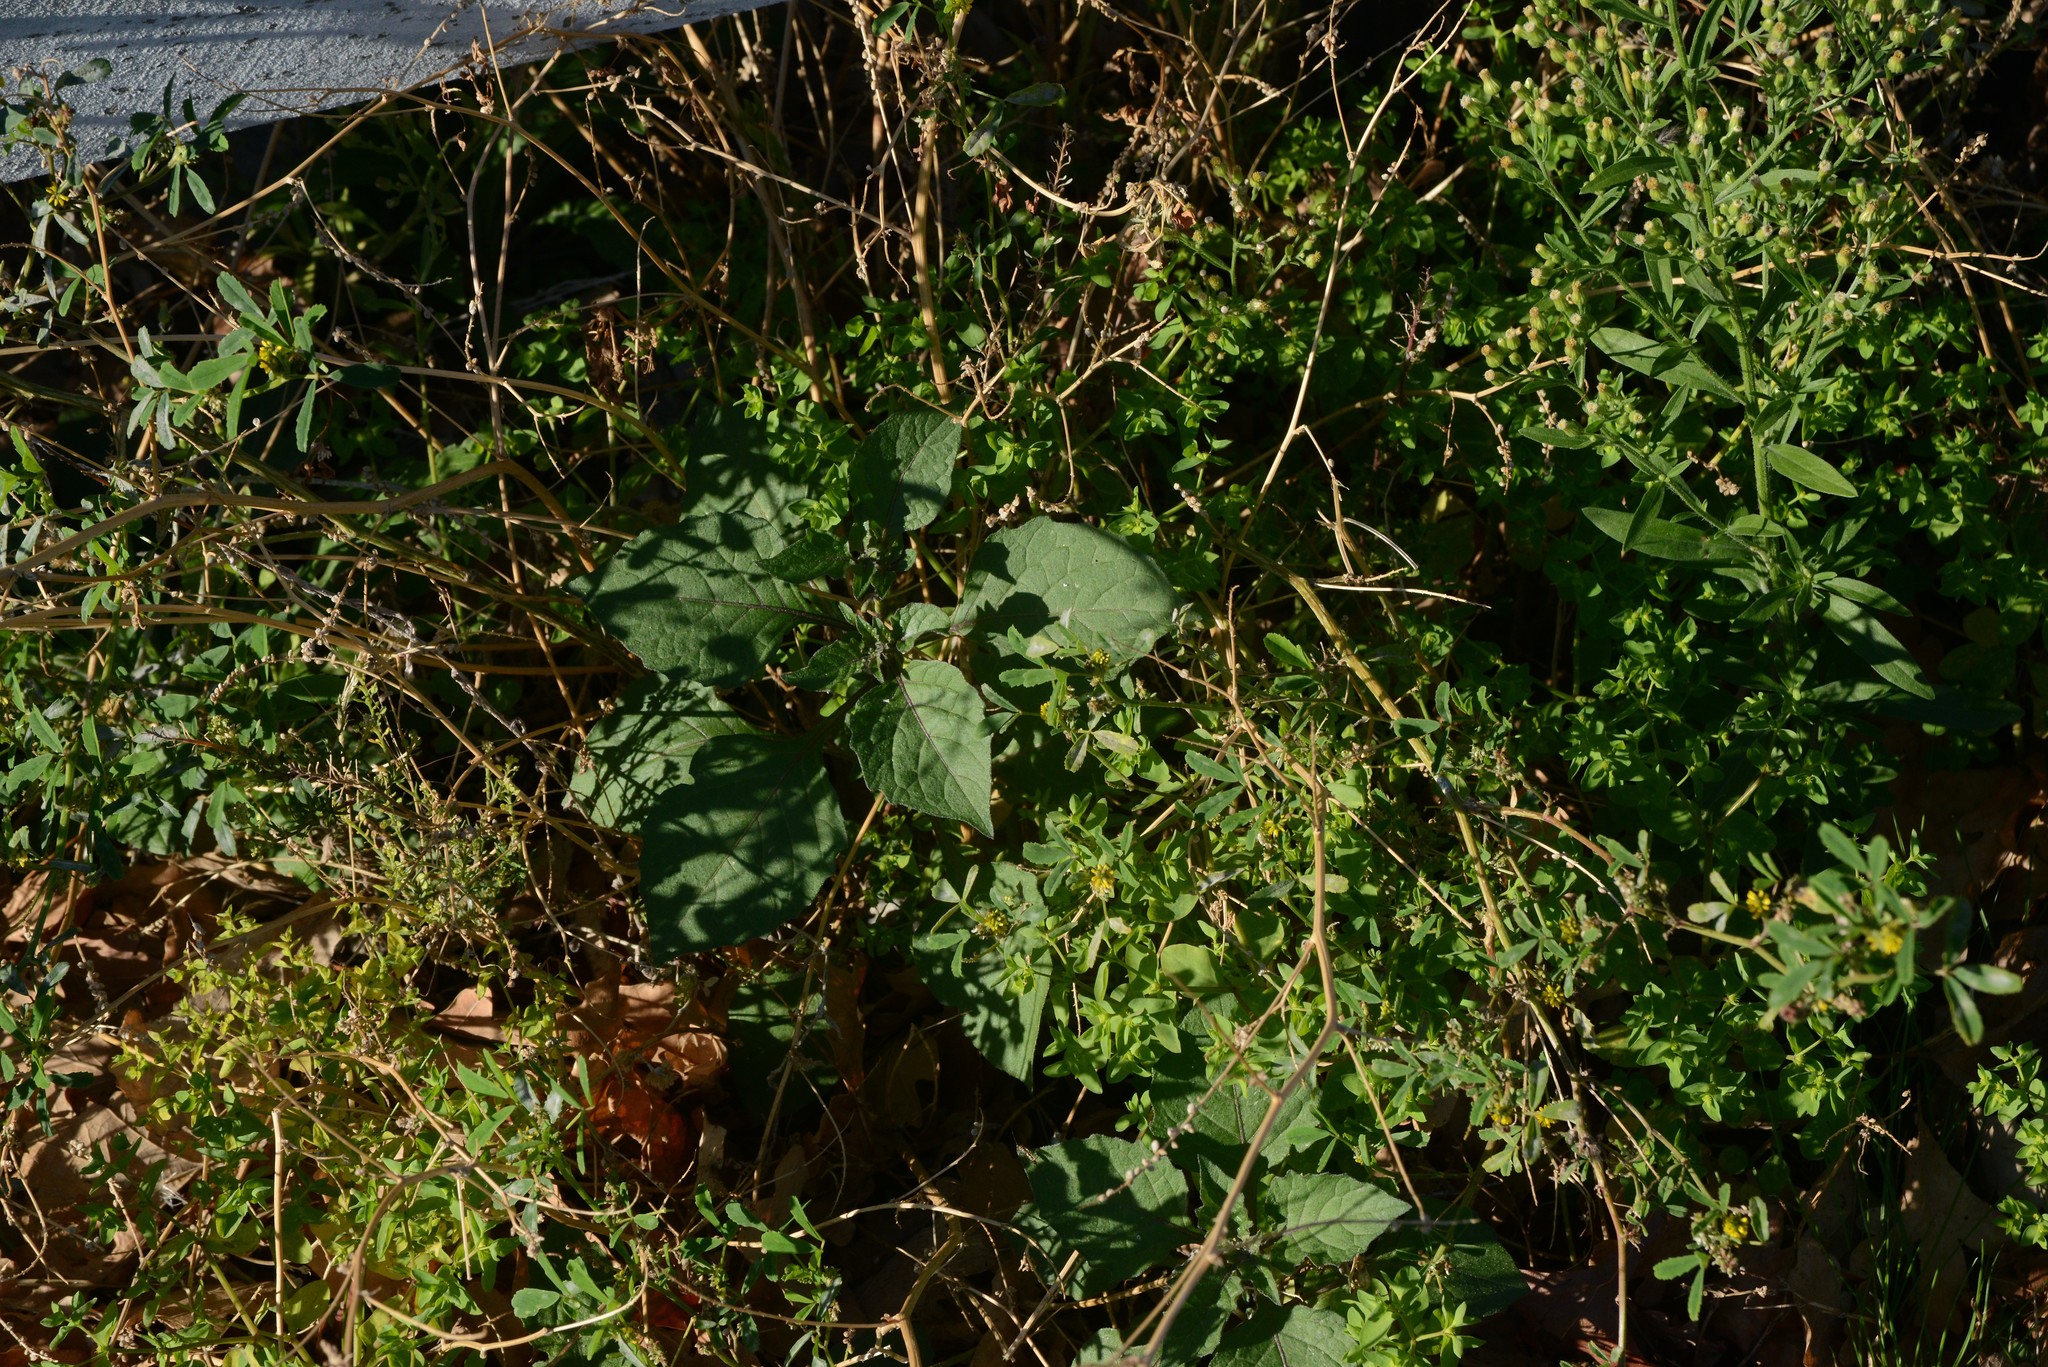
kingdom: Plantae
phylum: Tracheophyta
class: Magnoliopsida
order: Fabales
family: Fabaceae
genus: Melilotus
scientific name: Melilotus indicus
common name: Small melilot
